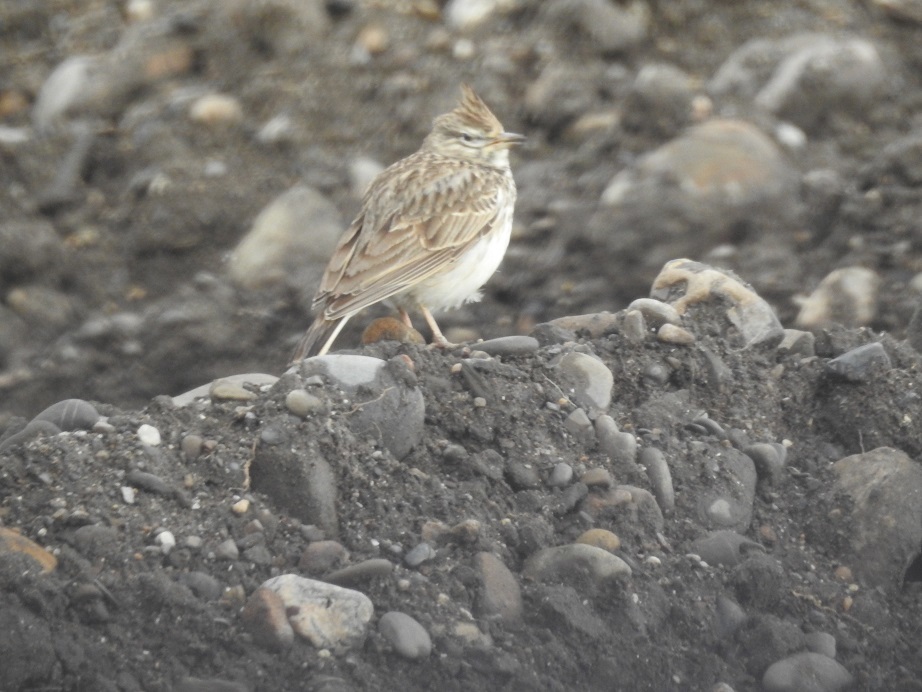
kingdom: Animalia
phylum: Chordata
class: Aves
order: Passeriformes
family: Alaudidae
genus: Galerida
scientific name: Galerida theklae
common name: Thekla lark
